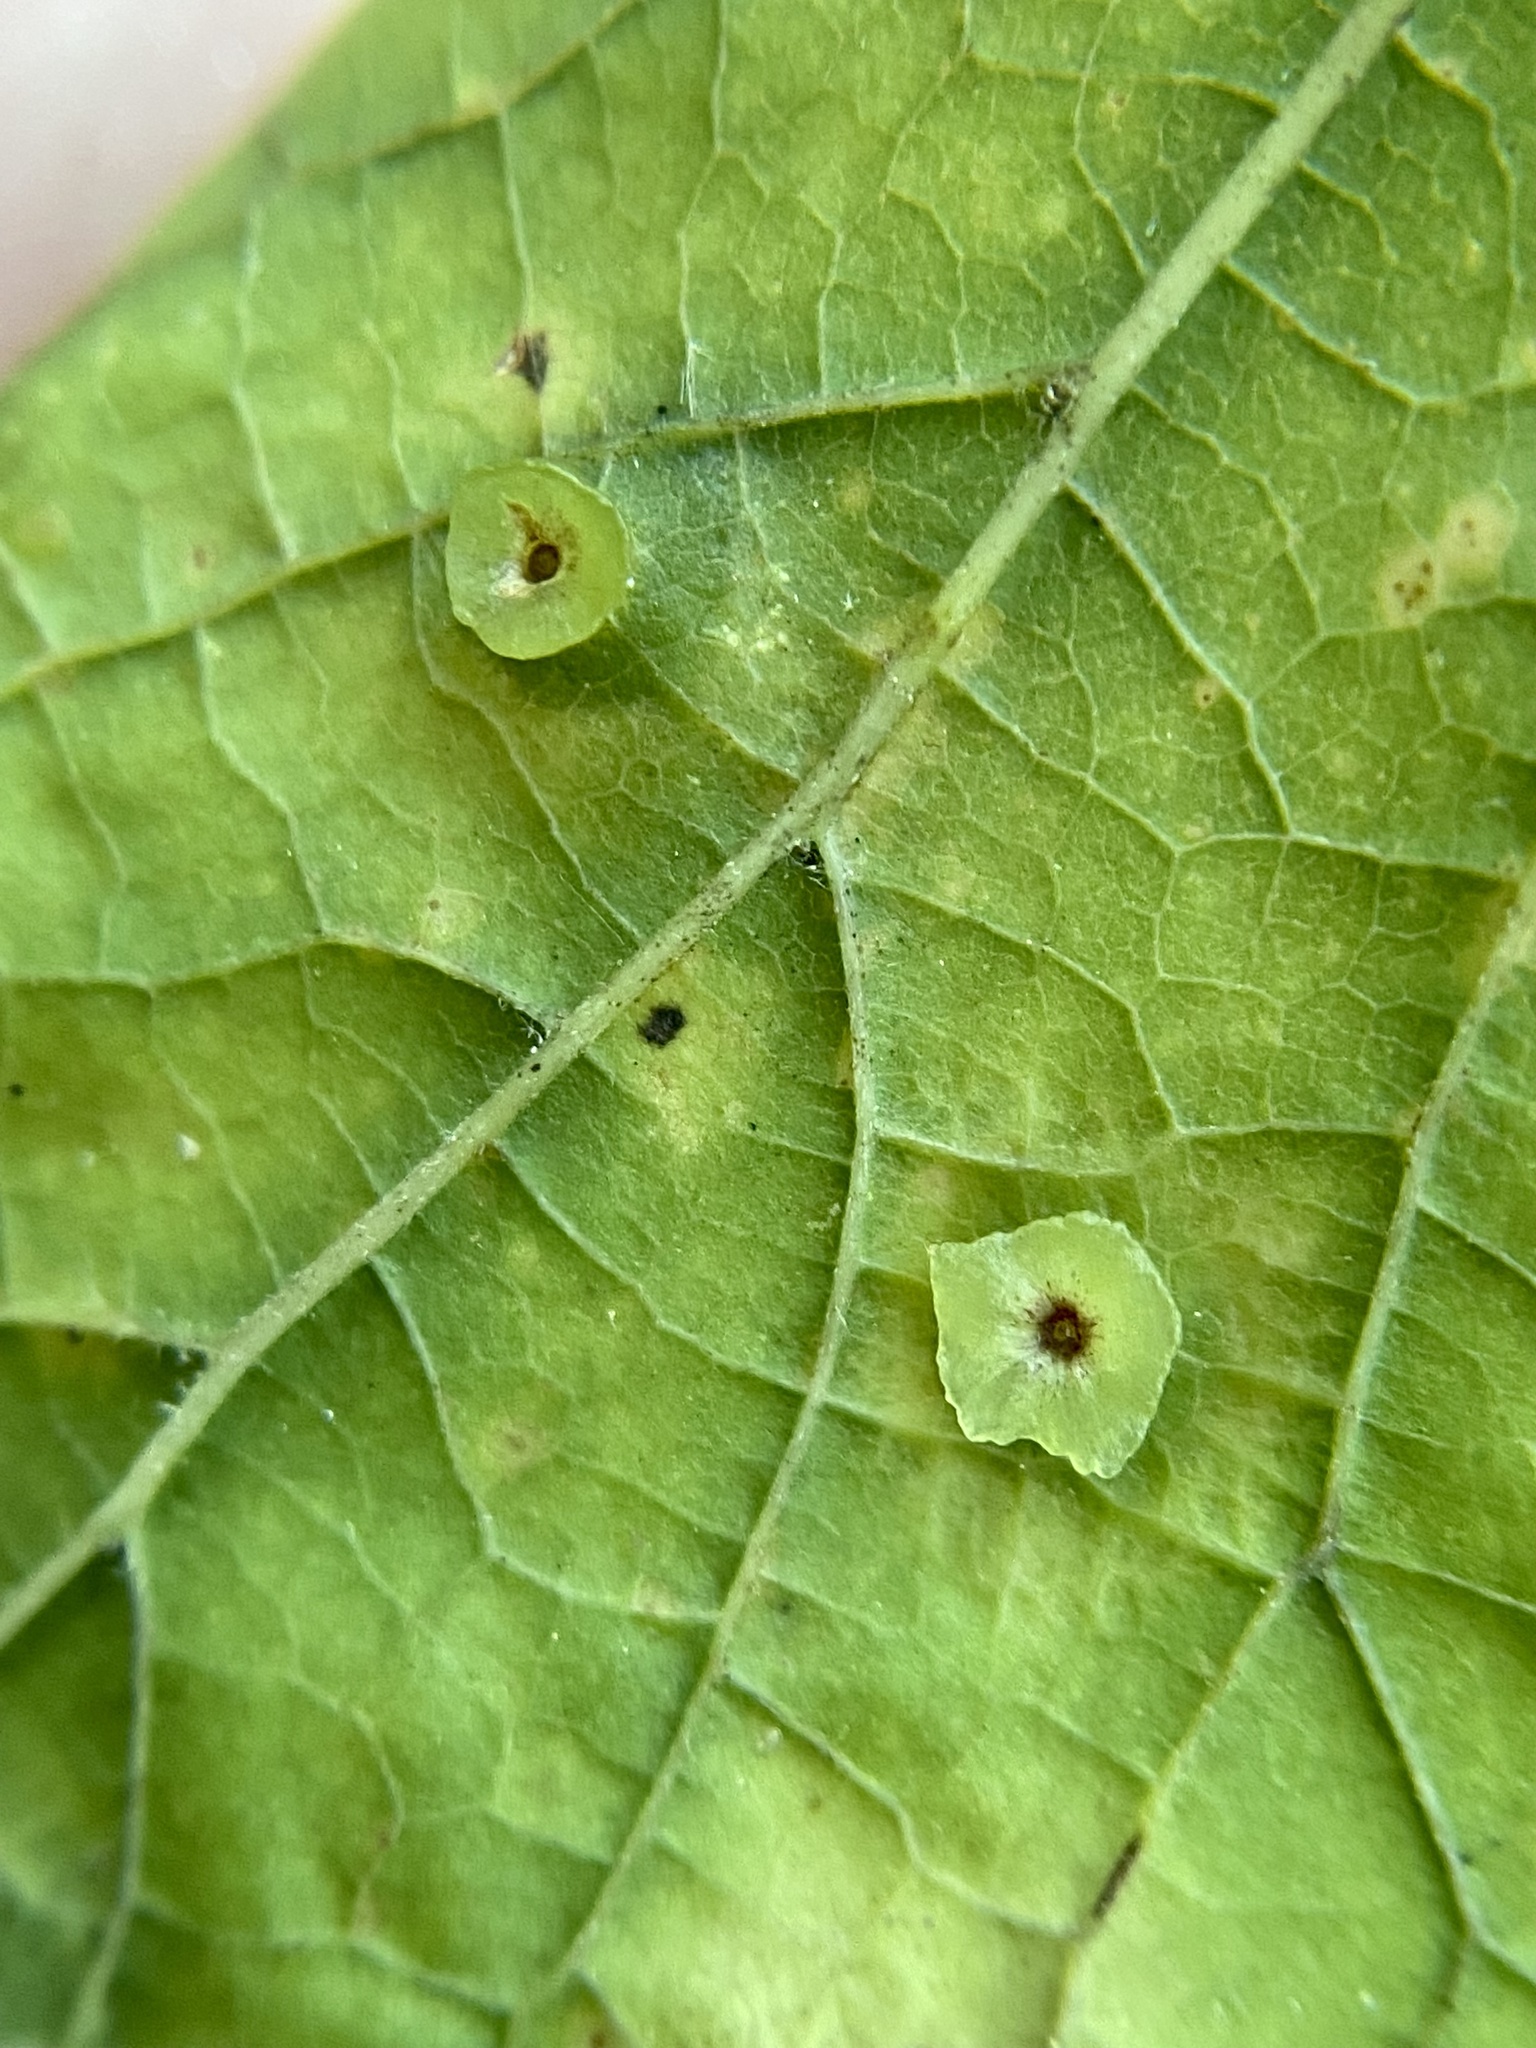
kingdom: Animalia
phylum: Arthropoda
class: Insecta
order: Hemiptera
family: Aphalaridae
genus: Pachypsylla
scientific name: Pachypsylla celtidisasterisca
